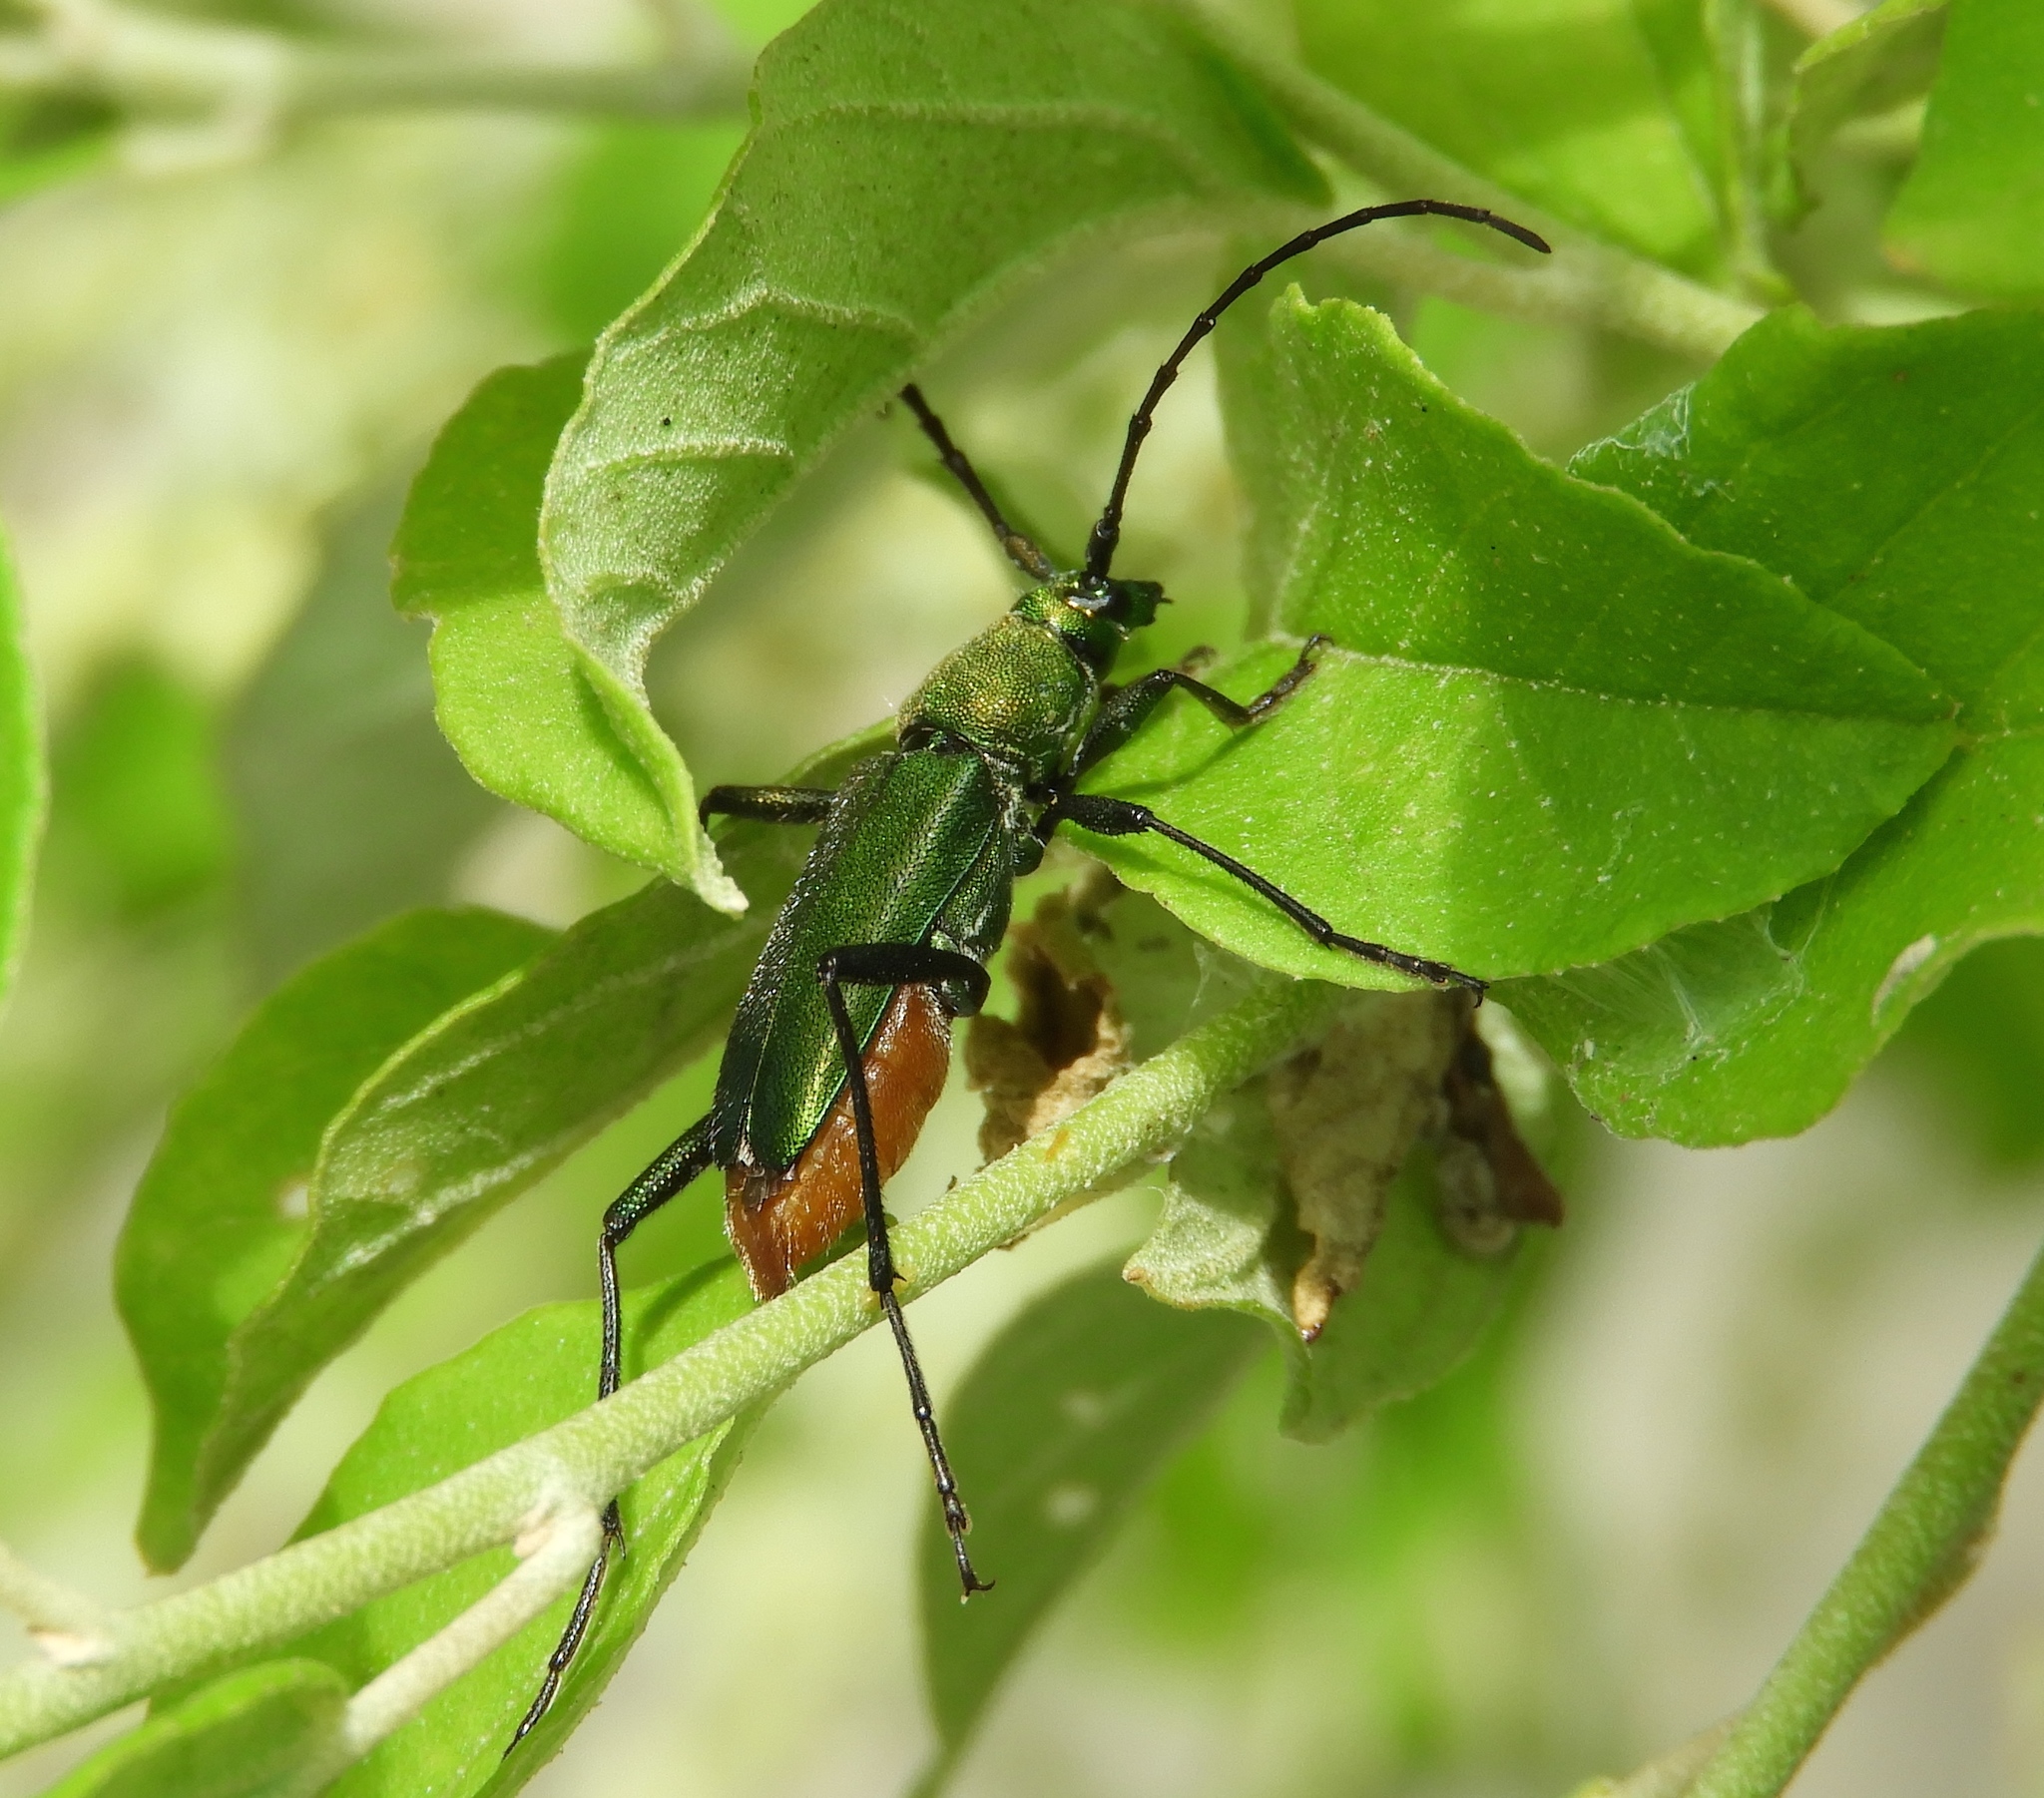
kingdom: Animalia
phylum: Arthropoda
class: Insecta
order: Coleoptera
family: Cerambycidae
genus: Chrysoprasis
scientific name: Chrysoprasis hypocrita
